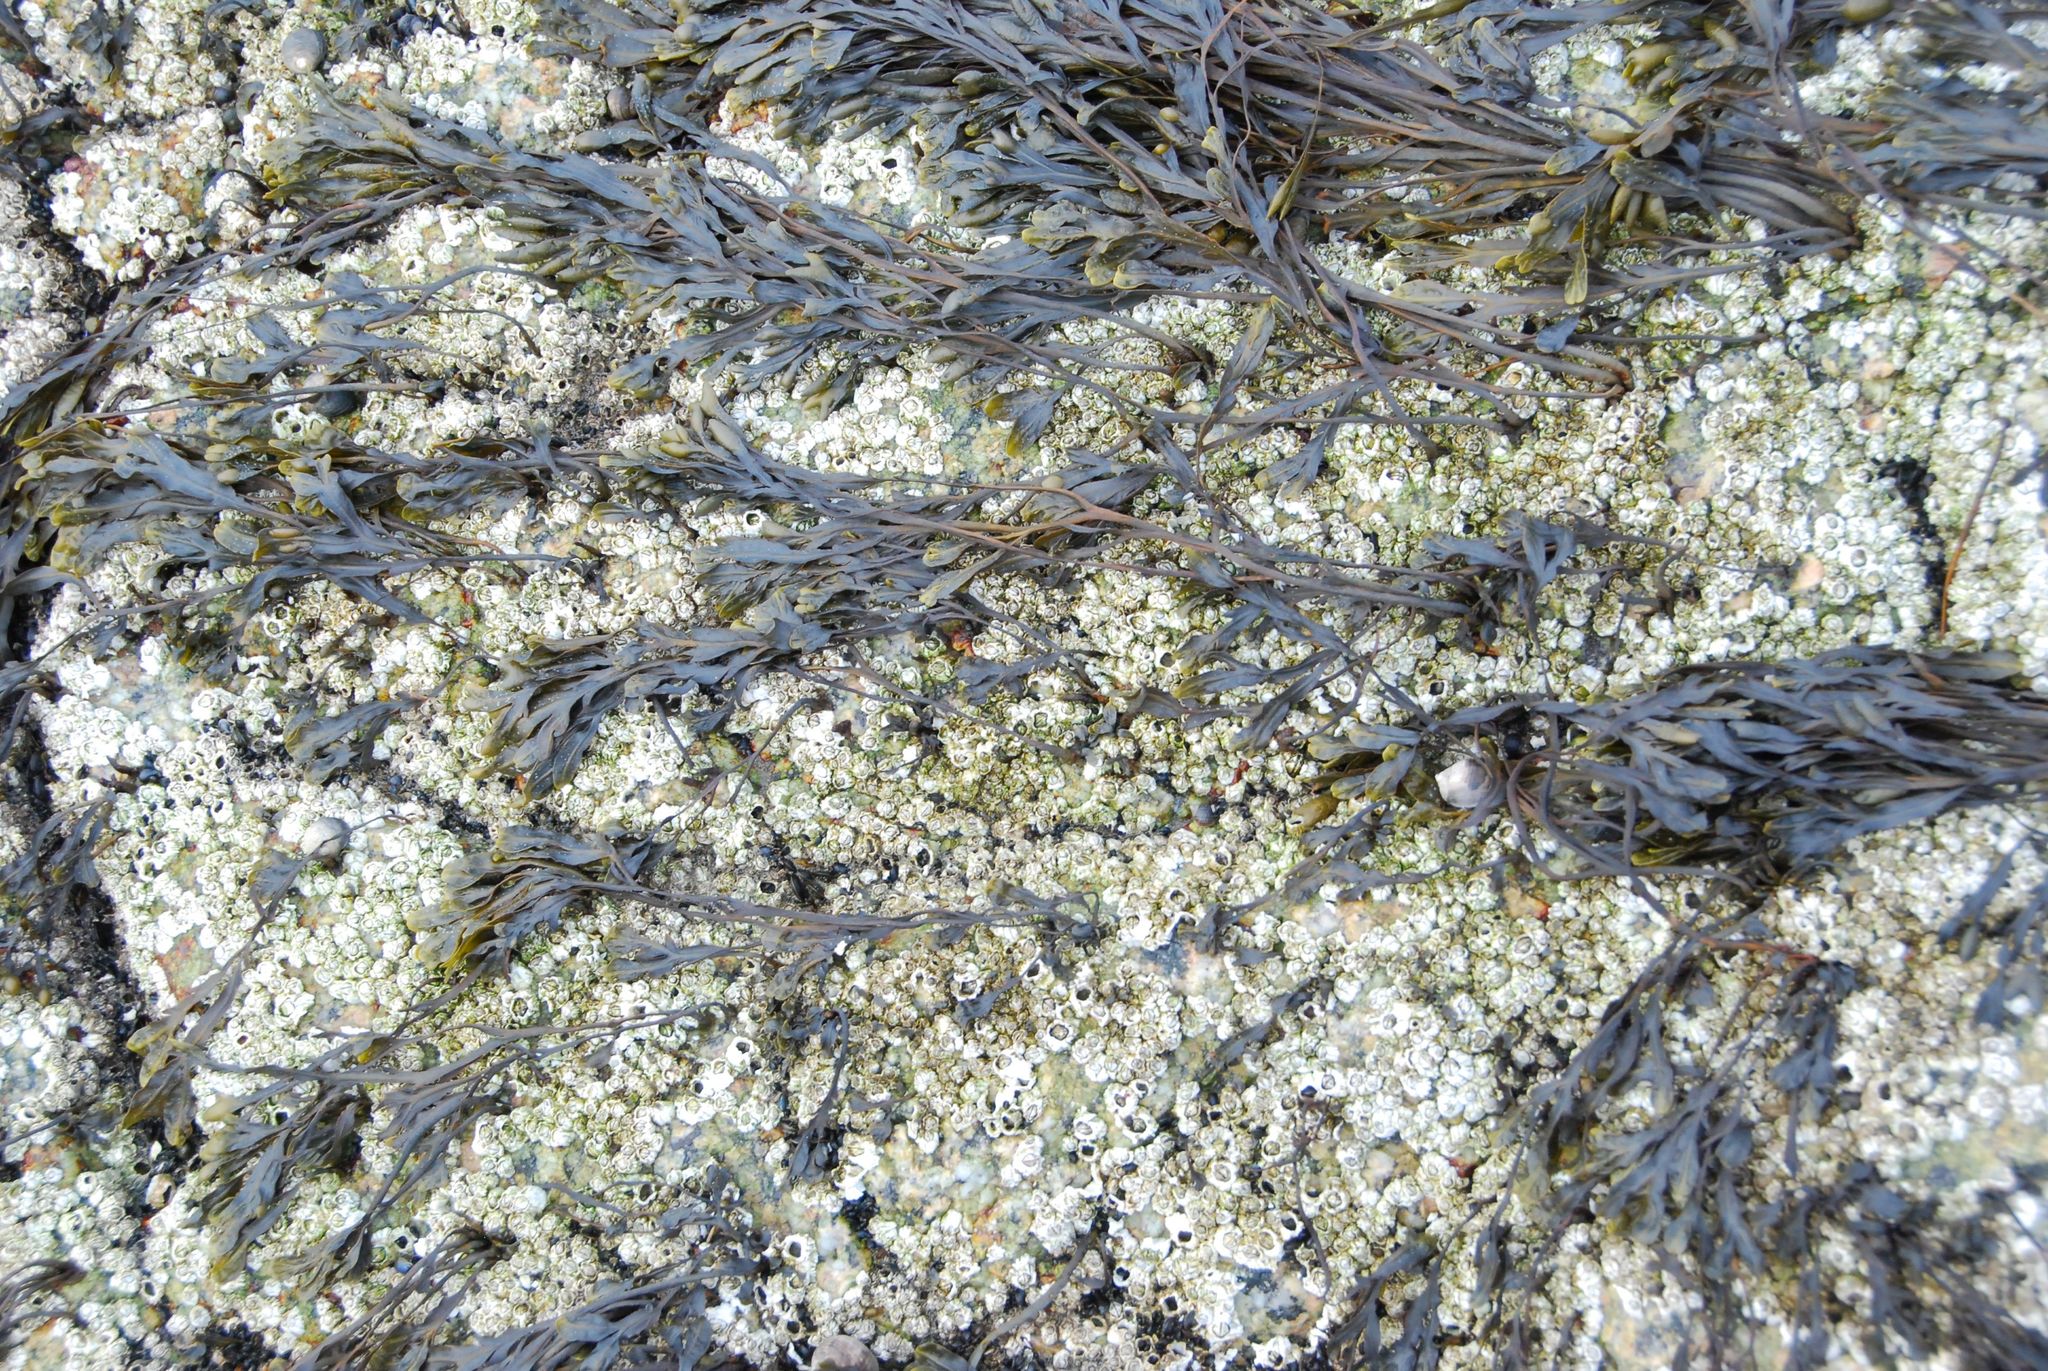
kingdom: Chromista
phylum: Ochrophyta
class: Phaeophyceae
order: Fucales
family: Fucaceae
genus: Fucus
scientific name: Fucus distichus
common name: Rockweed
